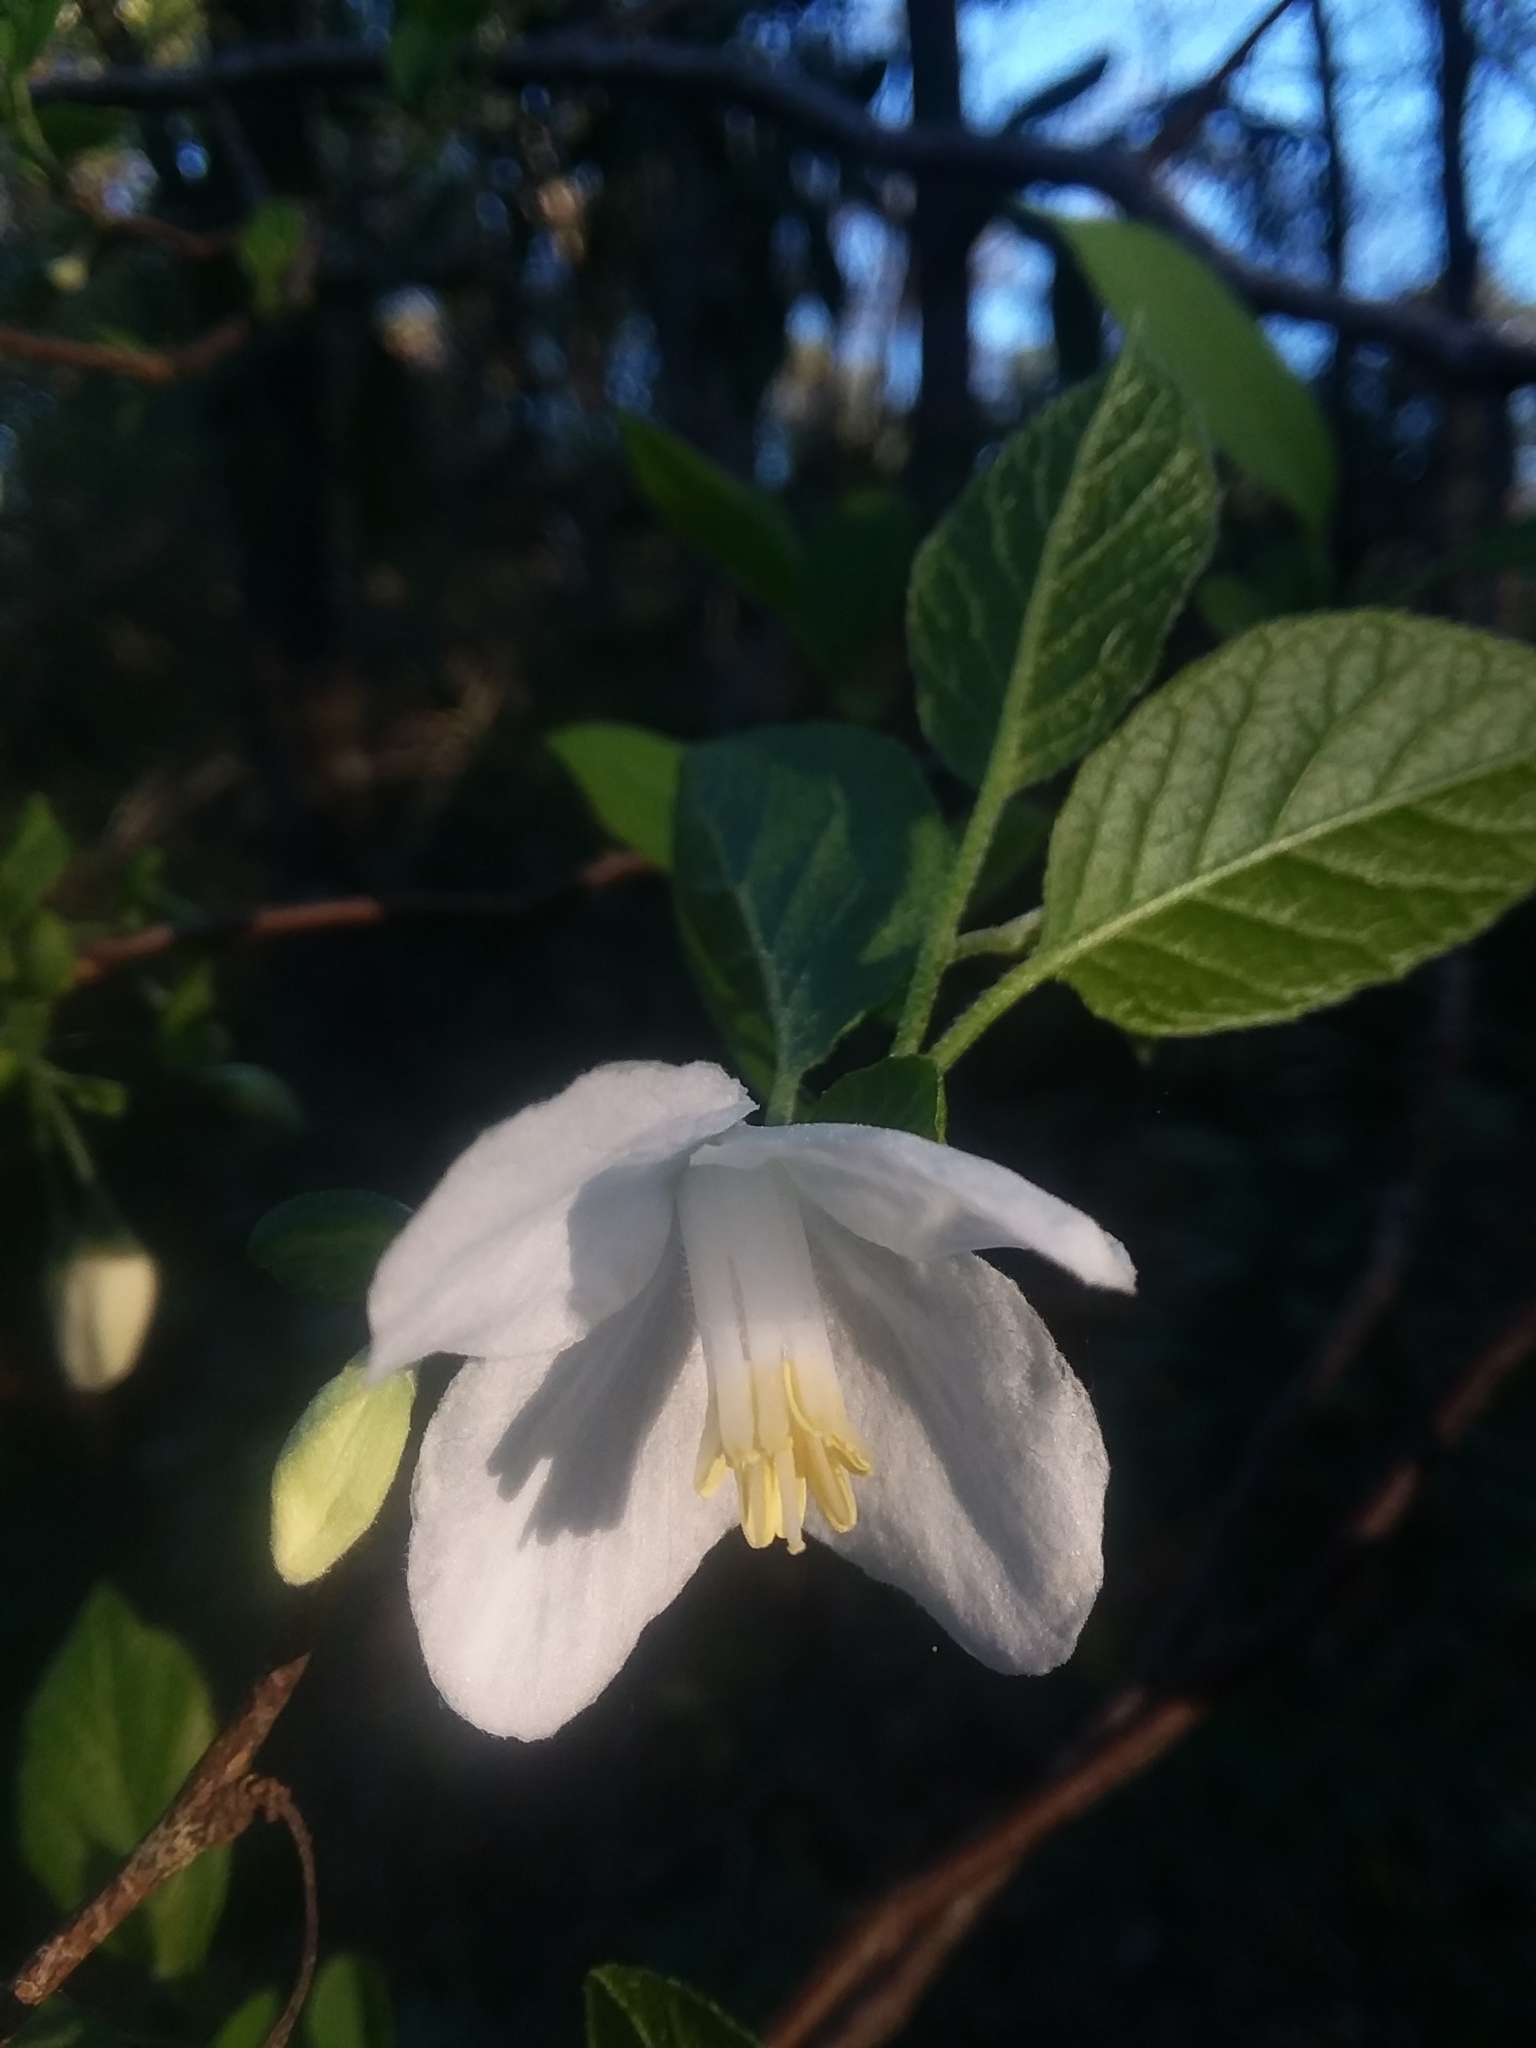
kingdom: Plantae
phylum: Tracheophyta
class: Magnoliopsida
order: Ericales
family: Styracaceae
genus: Halesia
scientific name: Halesia diptera
